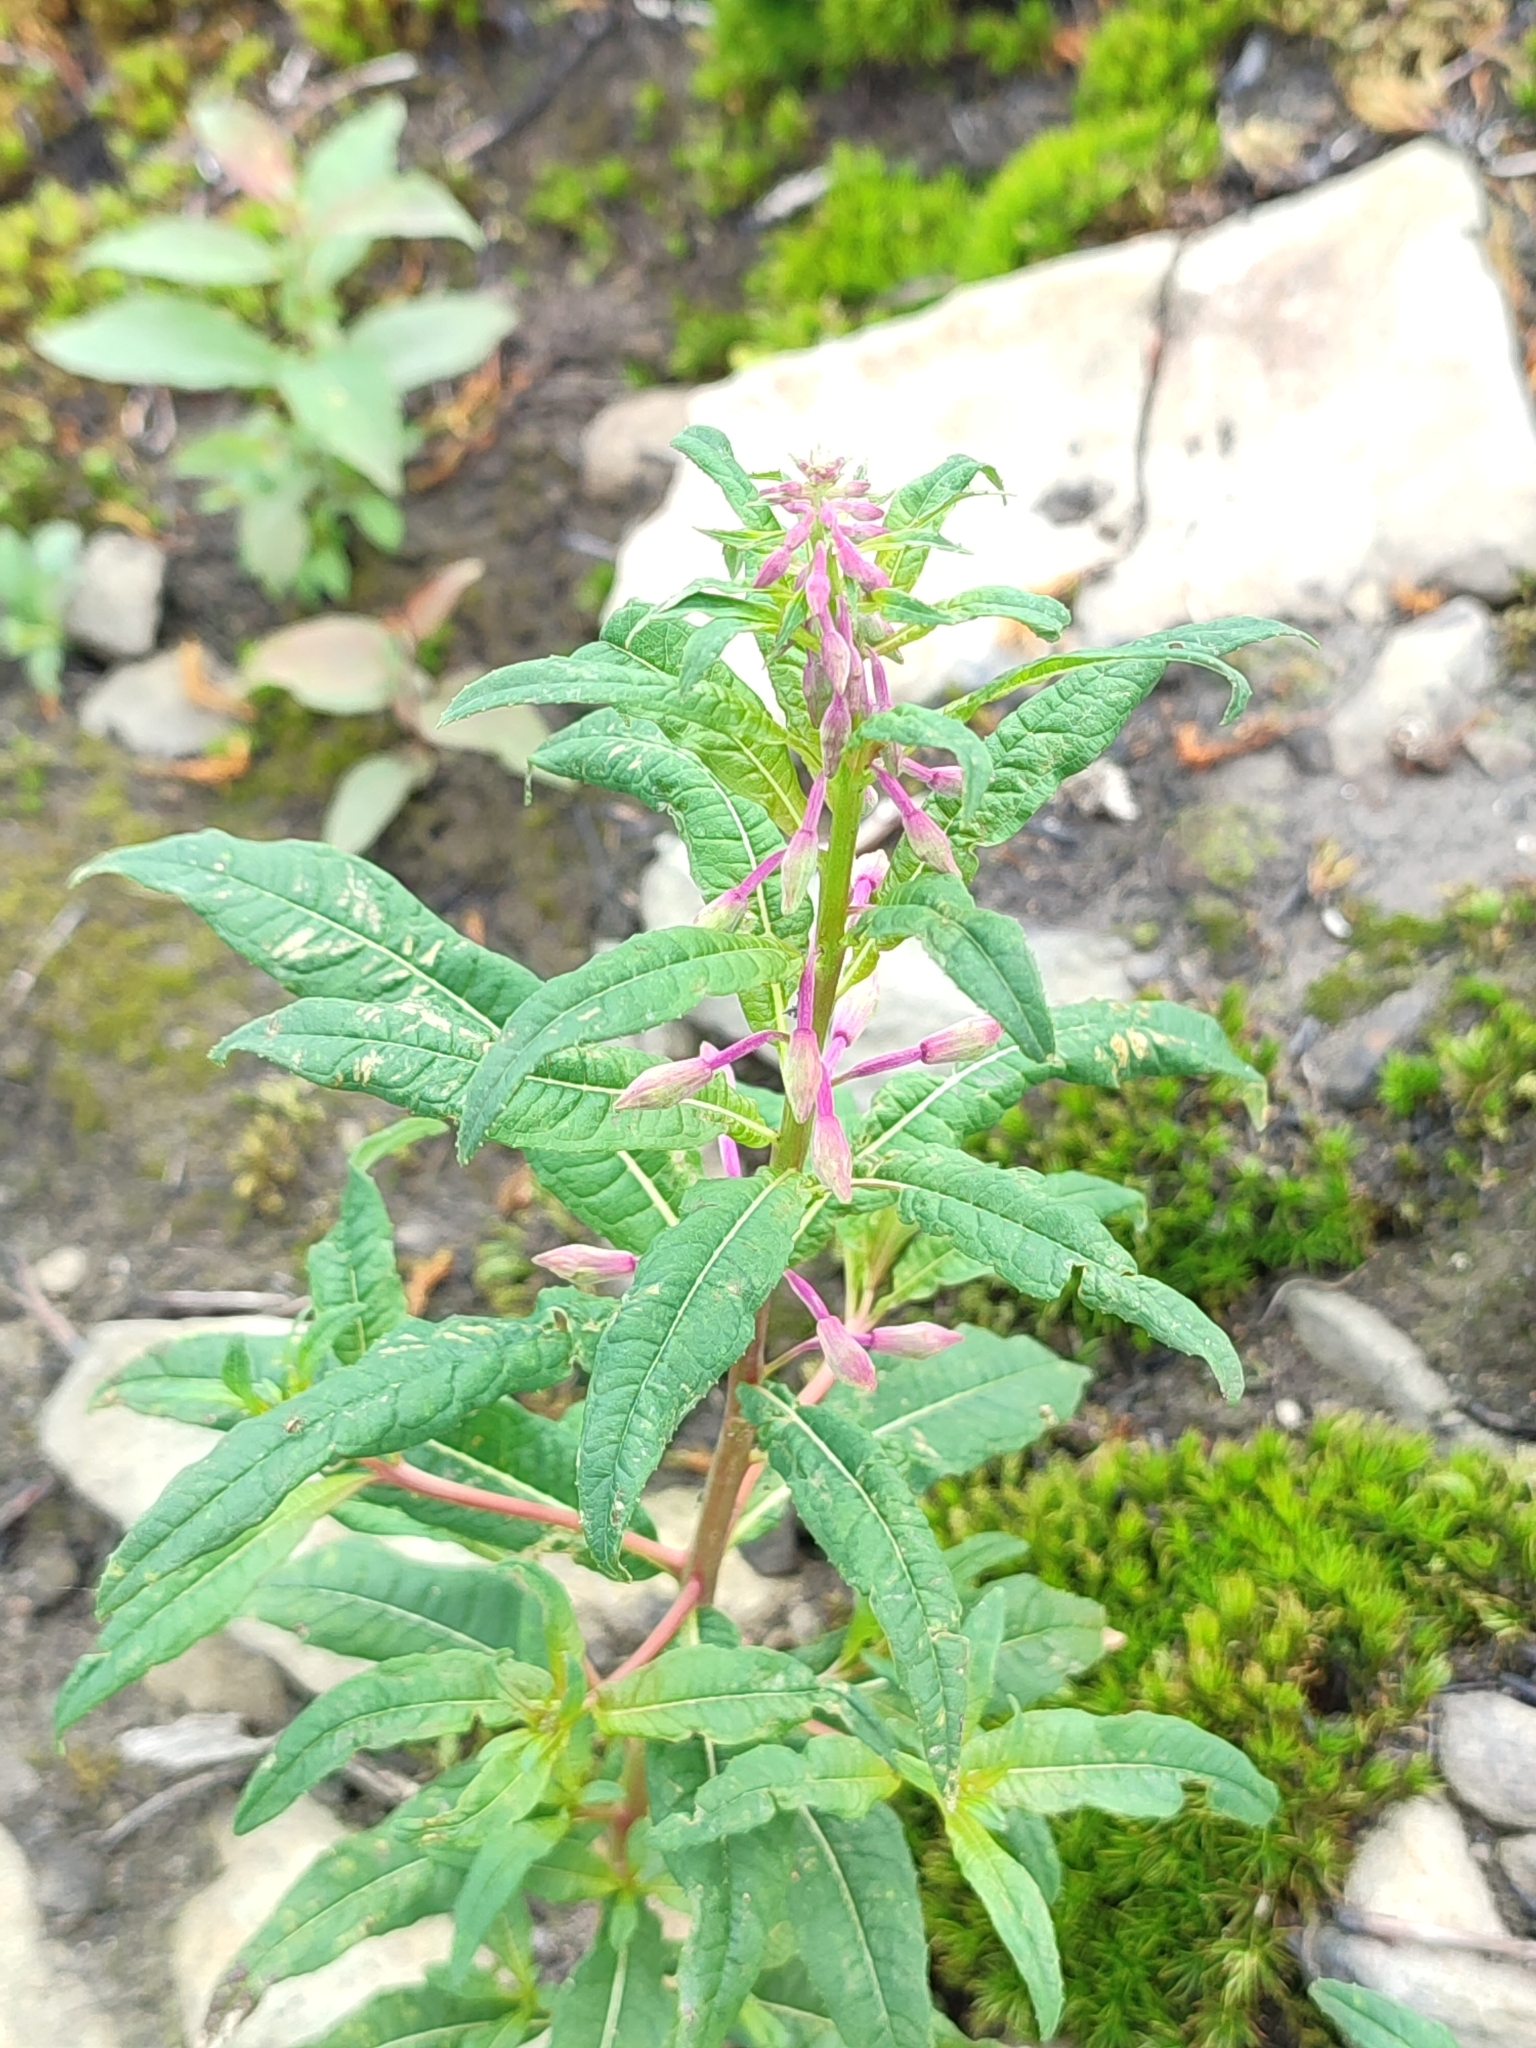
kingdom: Plantae
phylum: Tracheophyta
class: Magnoliopsida
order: Myrtales
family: Onagraceae
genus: Chamaenerion
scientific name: Chamaenerion angustifolium
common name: Fireweed
